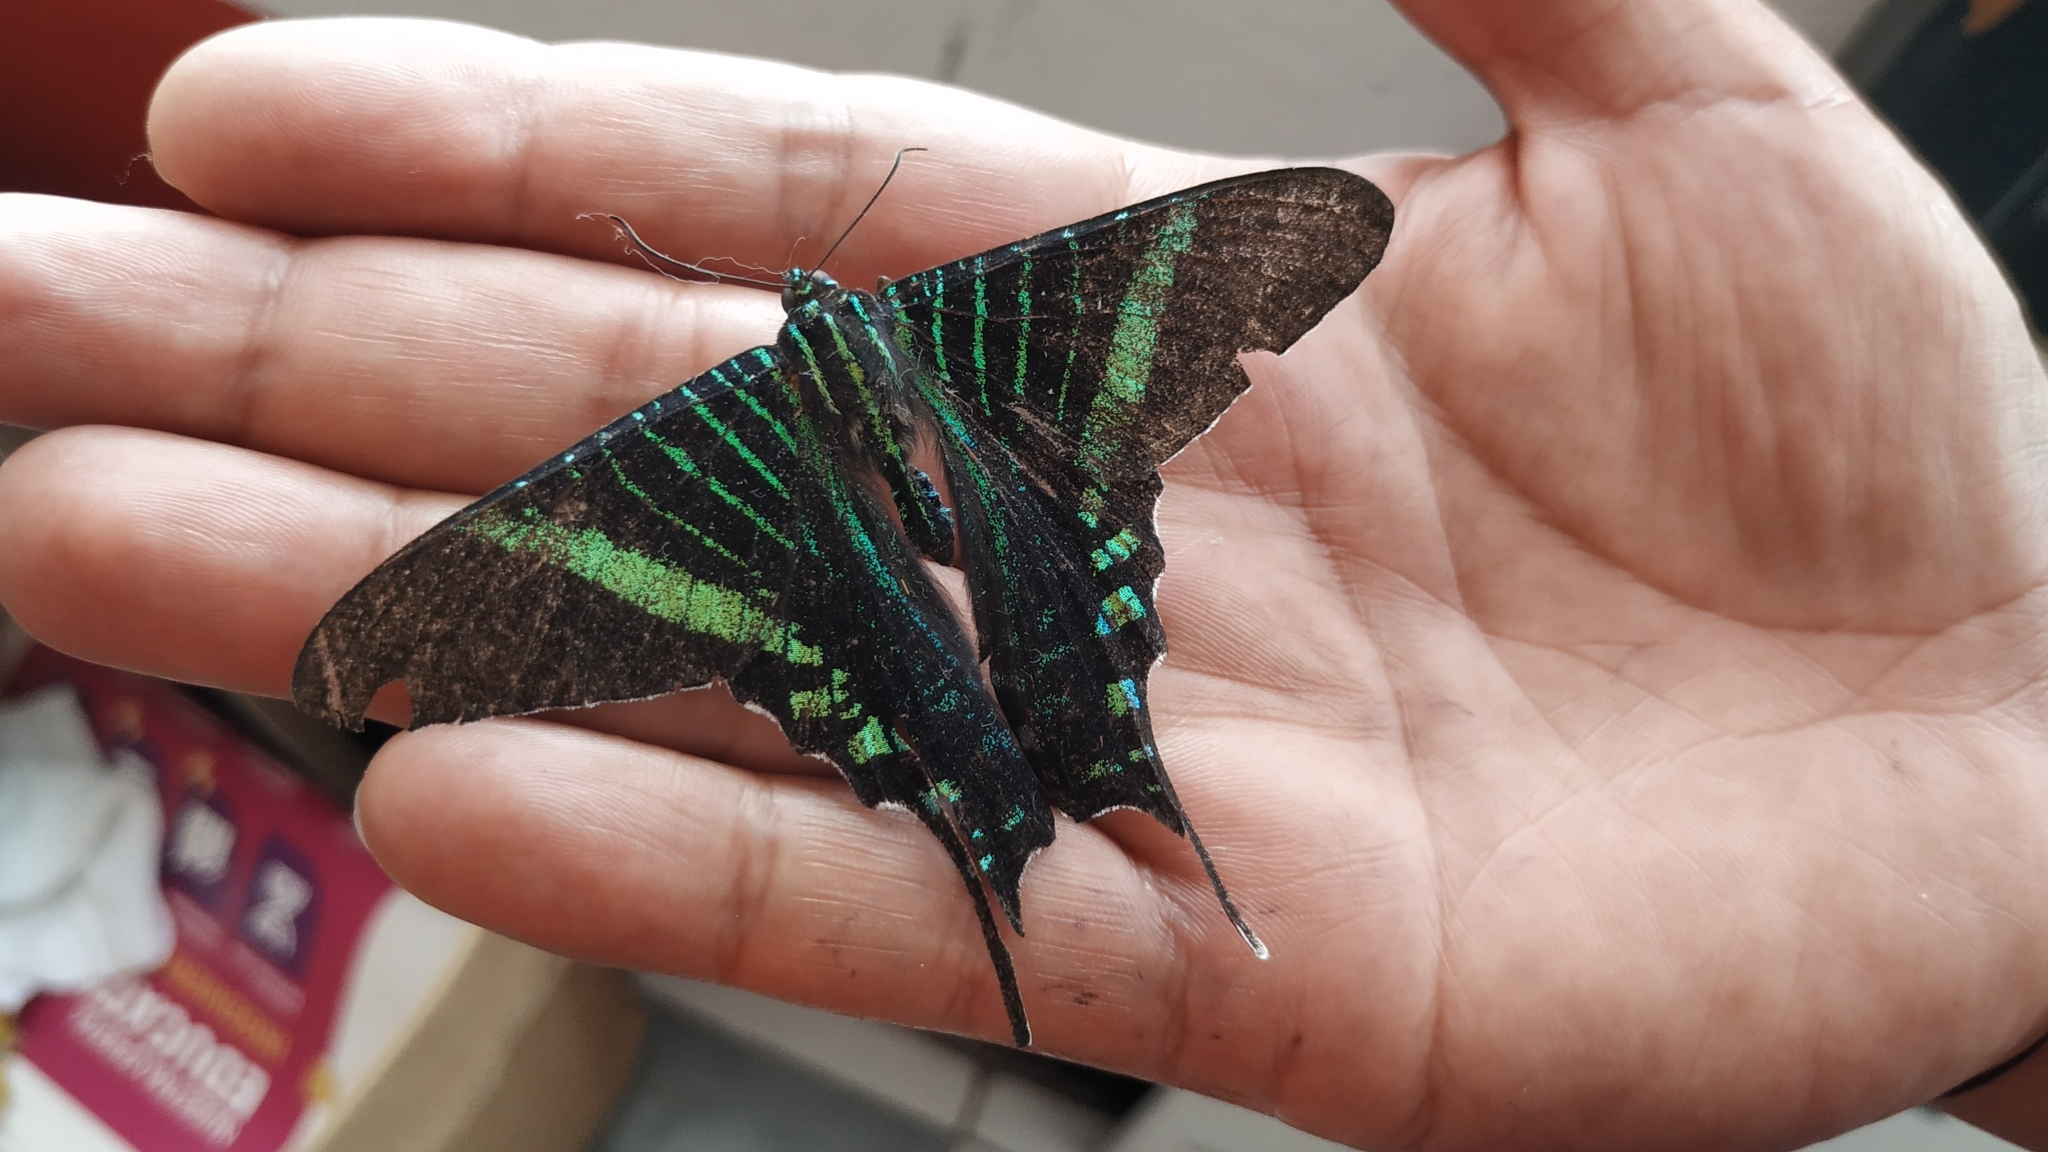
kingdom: Animalia
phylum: Arthropoda
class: Insecta
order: Lepidoptera
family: Uraniidae
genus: Urania
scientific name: Urania fulgens
